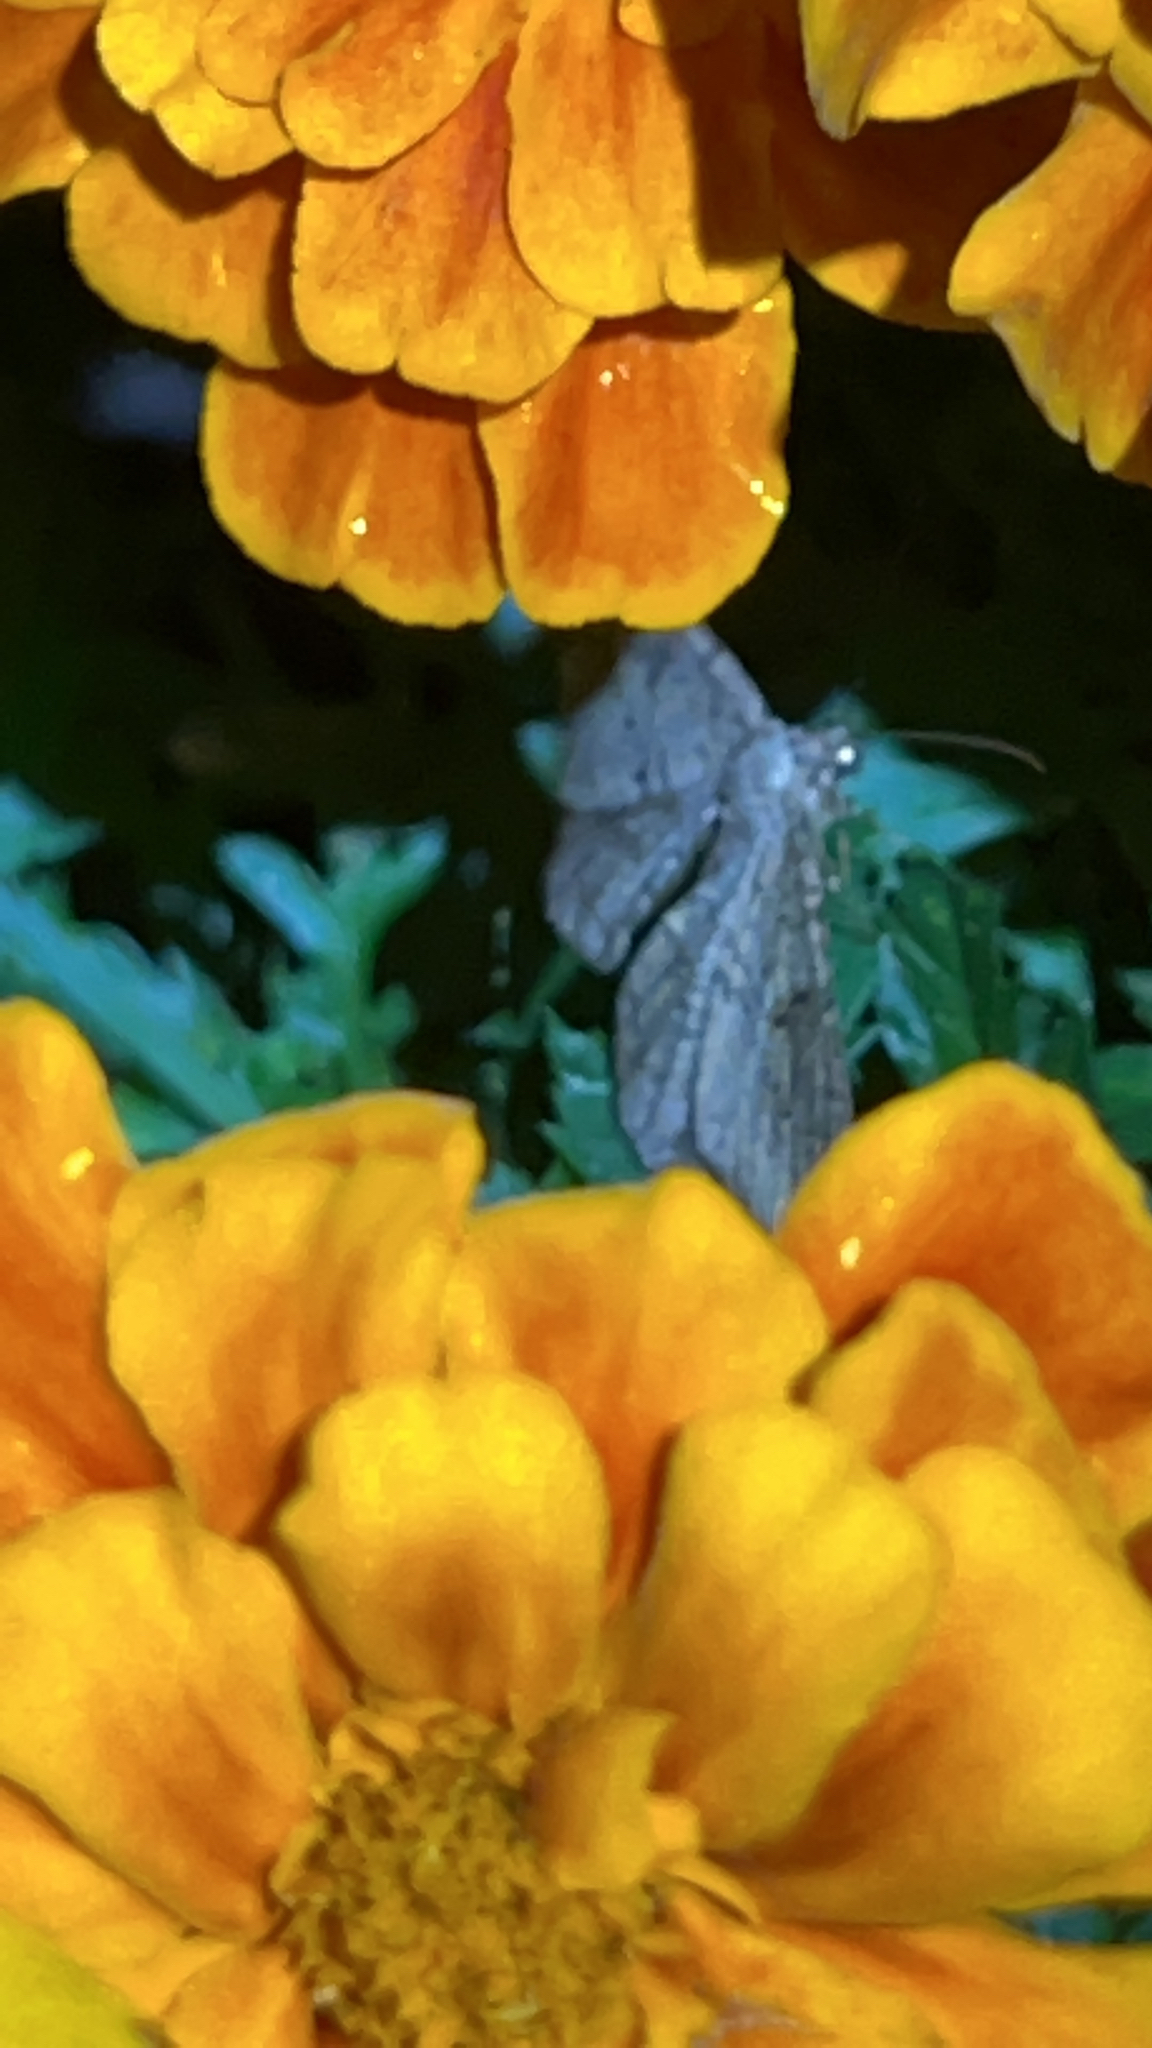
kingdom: Animalia
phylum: Arthropoda
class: Insecta
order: Lepidoptera
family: Geometridae
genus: Peribatodes
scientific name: Peribatodes rhomboidaria
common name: Willow beauty
